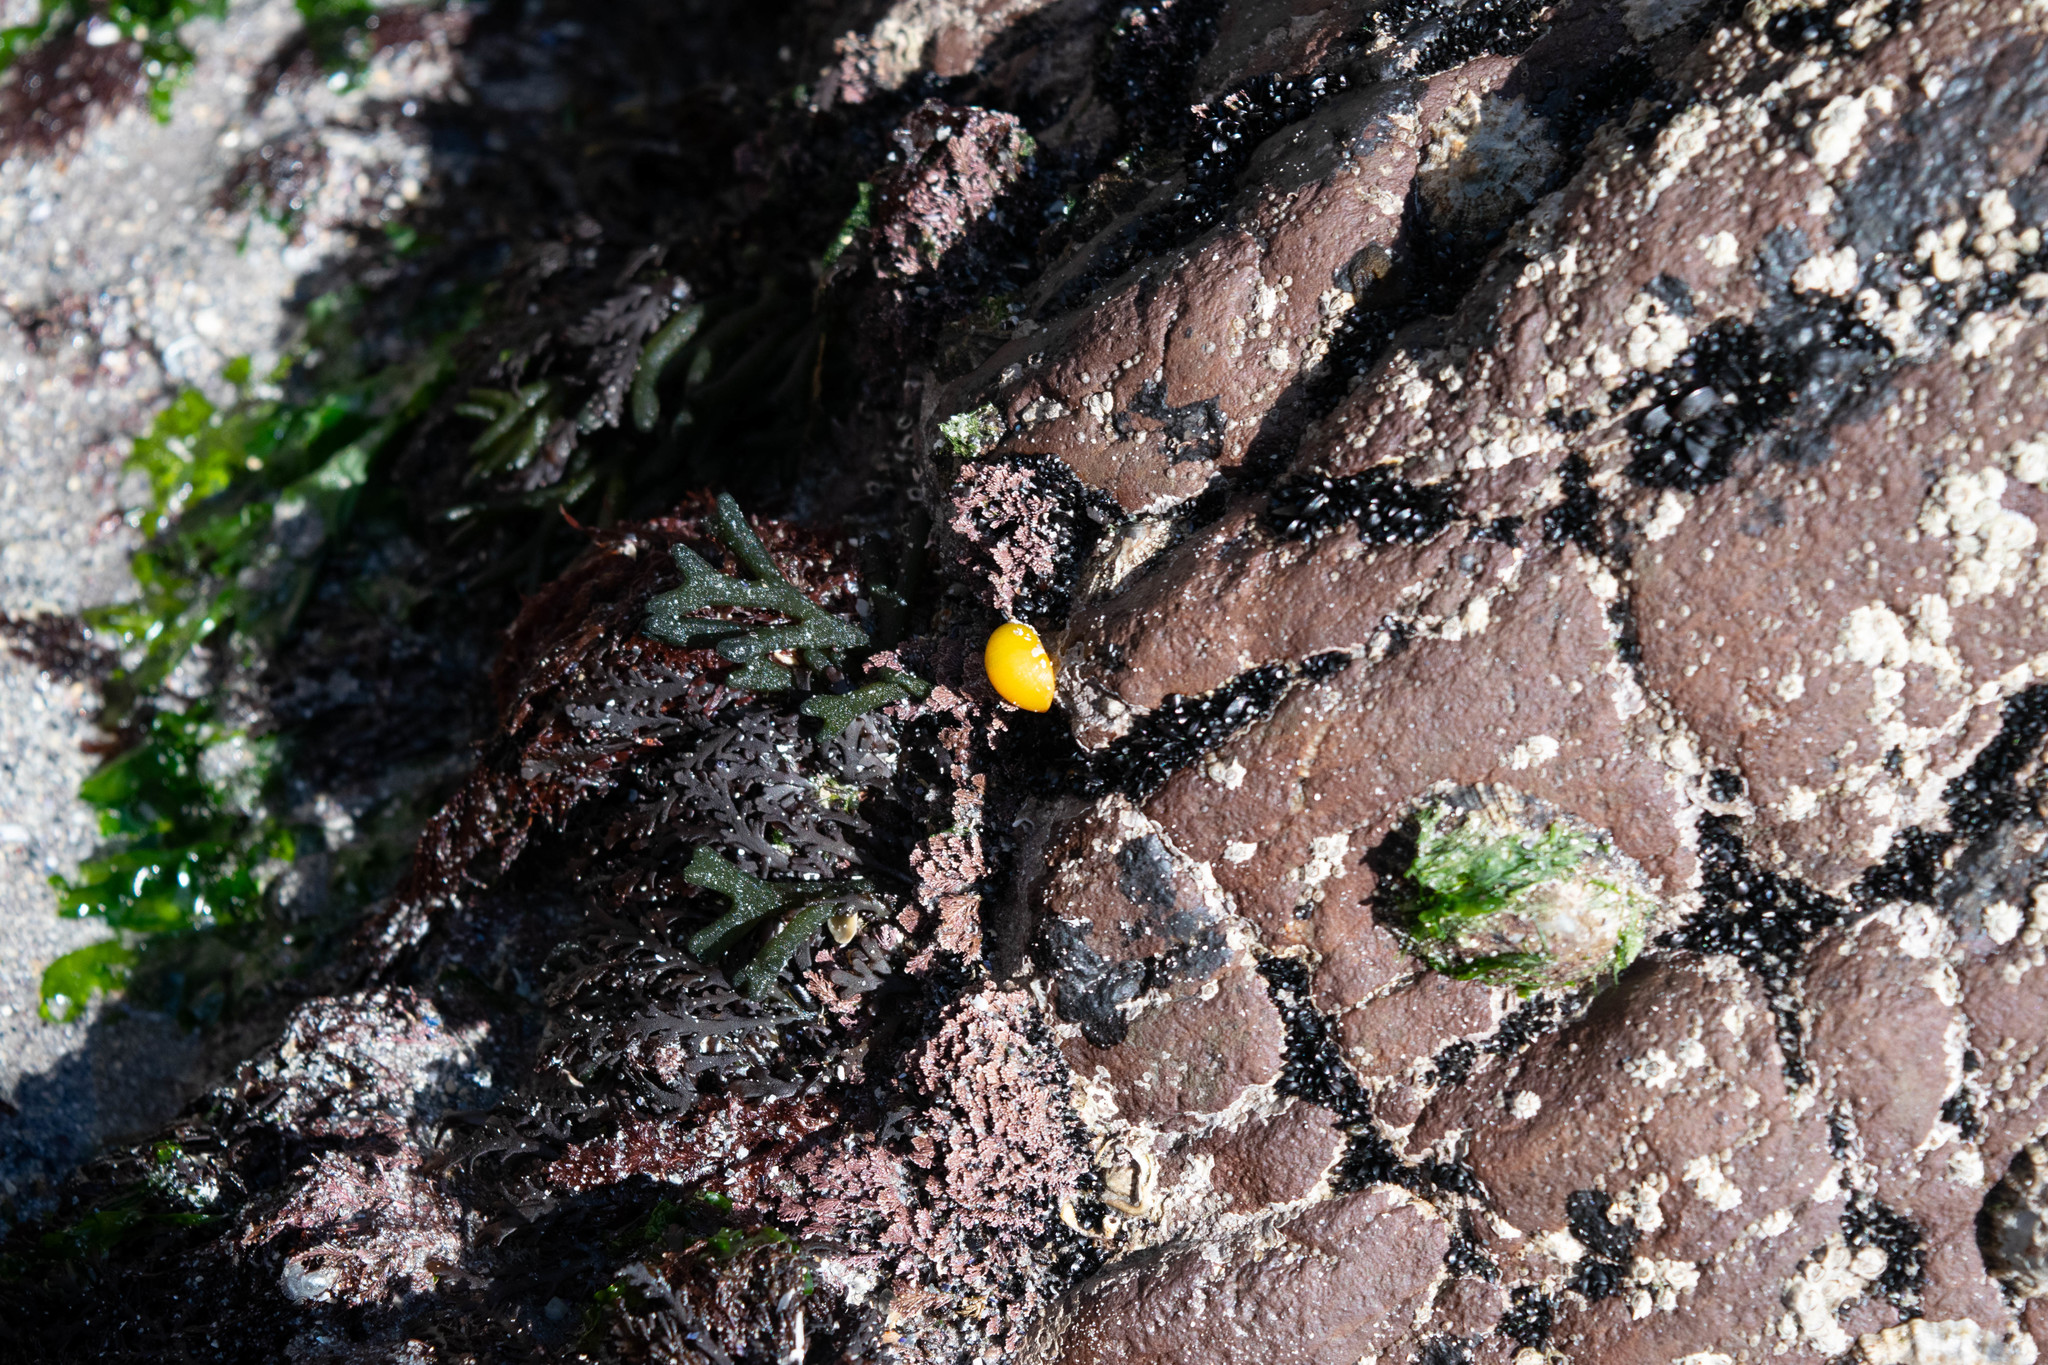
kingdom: Animalia
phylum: Mollusca
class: Gastropoda
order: Littorinimorpha
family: Littorinidae
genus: Littorina
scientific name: Littorina obtusata
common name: Flat periwinkle
